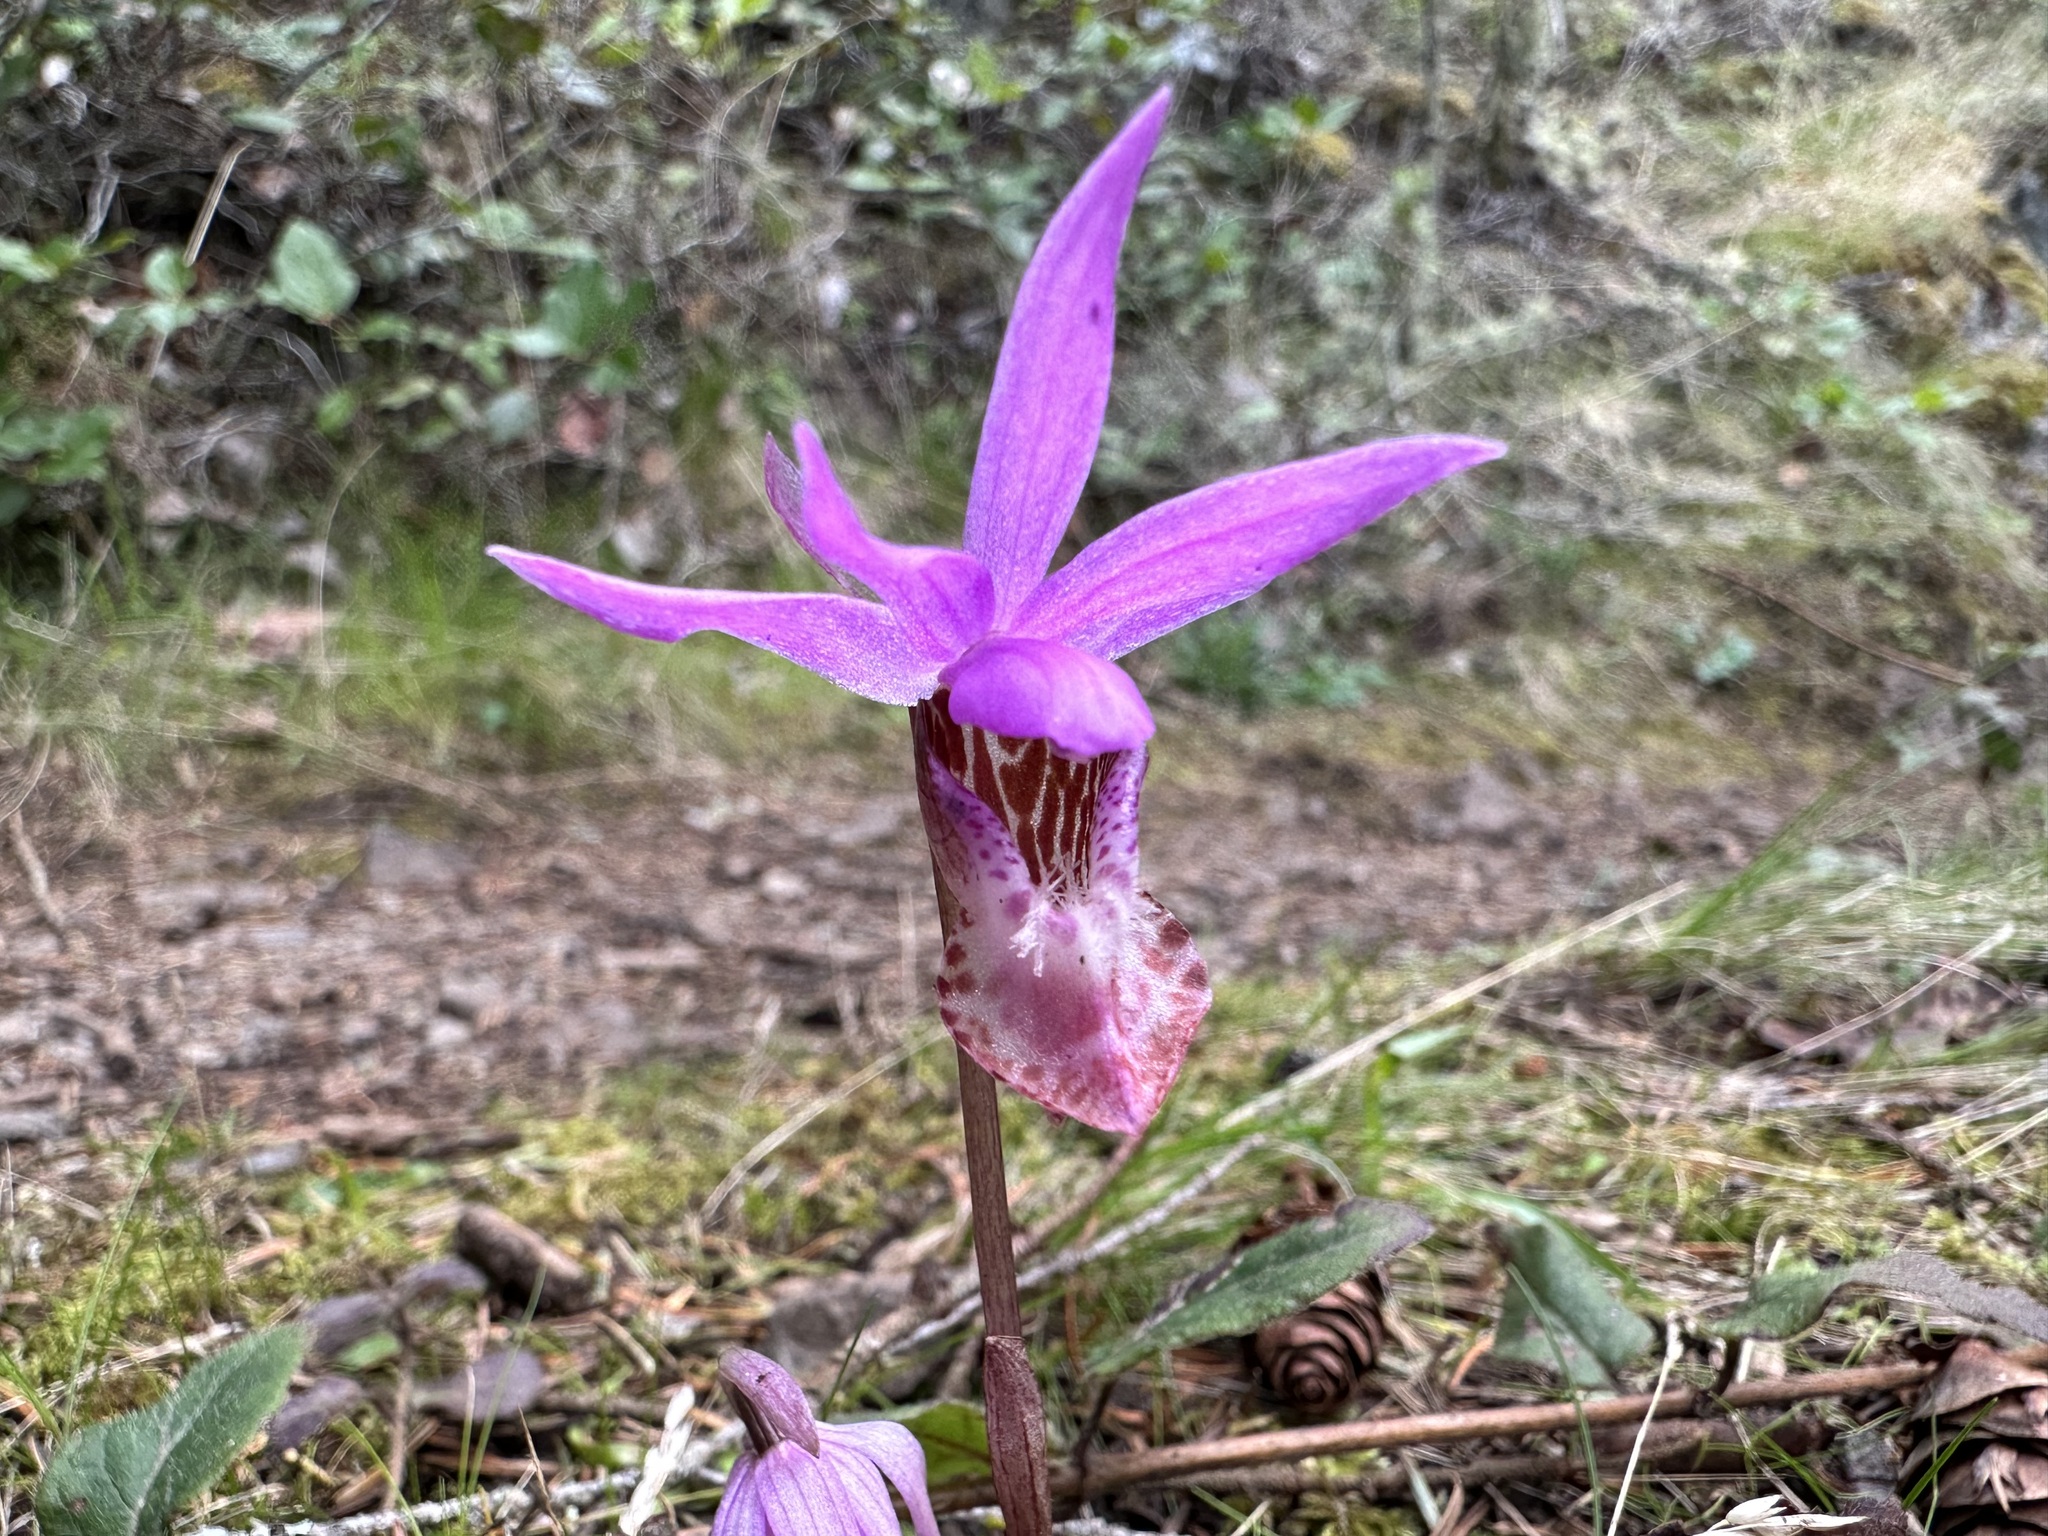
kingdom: Plantae
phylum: Tracheophyta
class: Liliopsida
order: Asparagales
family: Orchidaceae
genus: Calypso
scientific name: Calypso bulbosa
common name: Calypso
